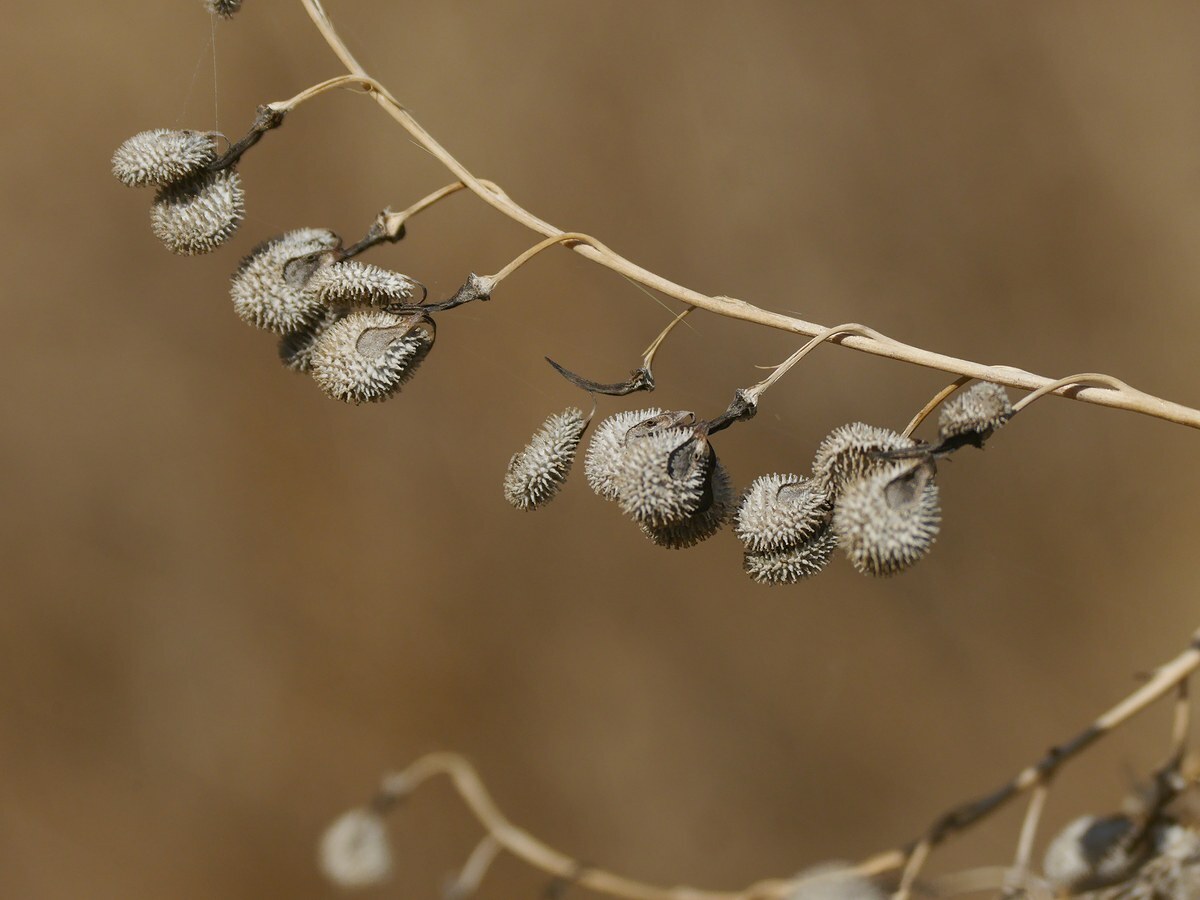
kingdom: Plantae
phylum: Tracheophyta
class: Magnoliopsida
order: Boraginales
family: Boraginaceae
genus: Cynoglossum
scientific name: Cynoglossum officinale
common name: Hound's-tongue
